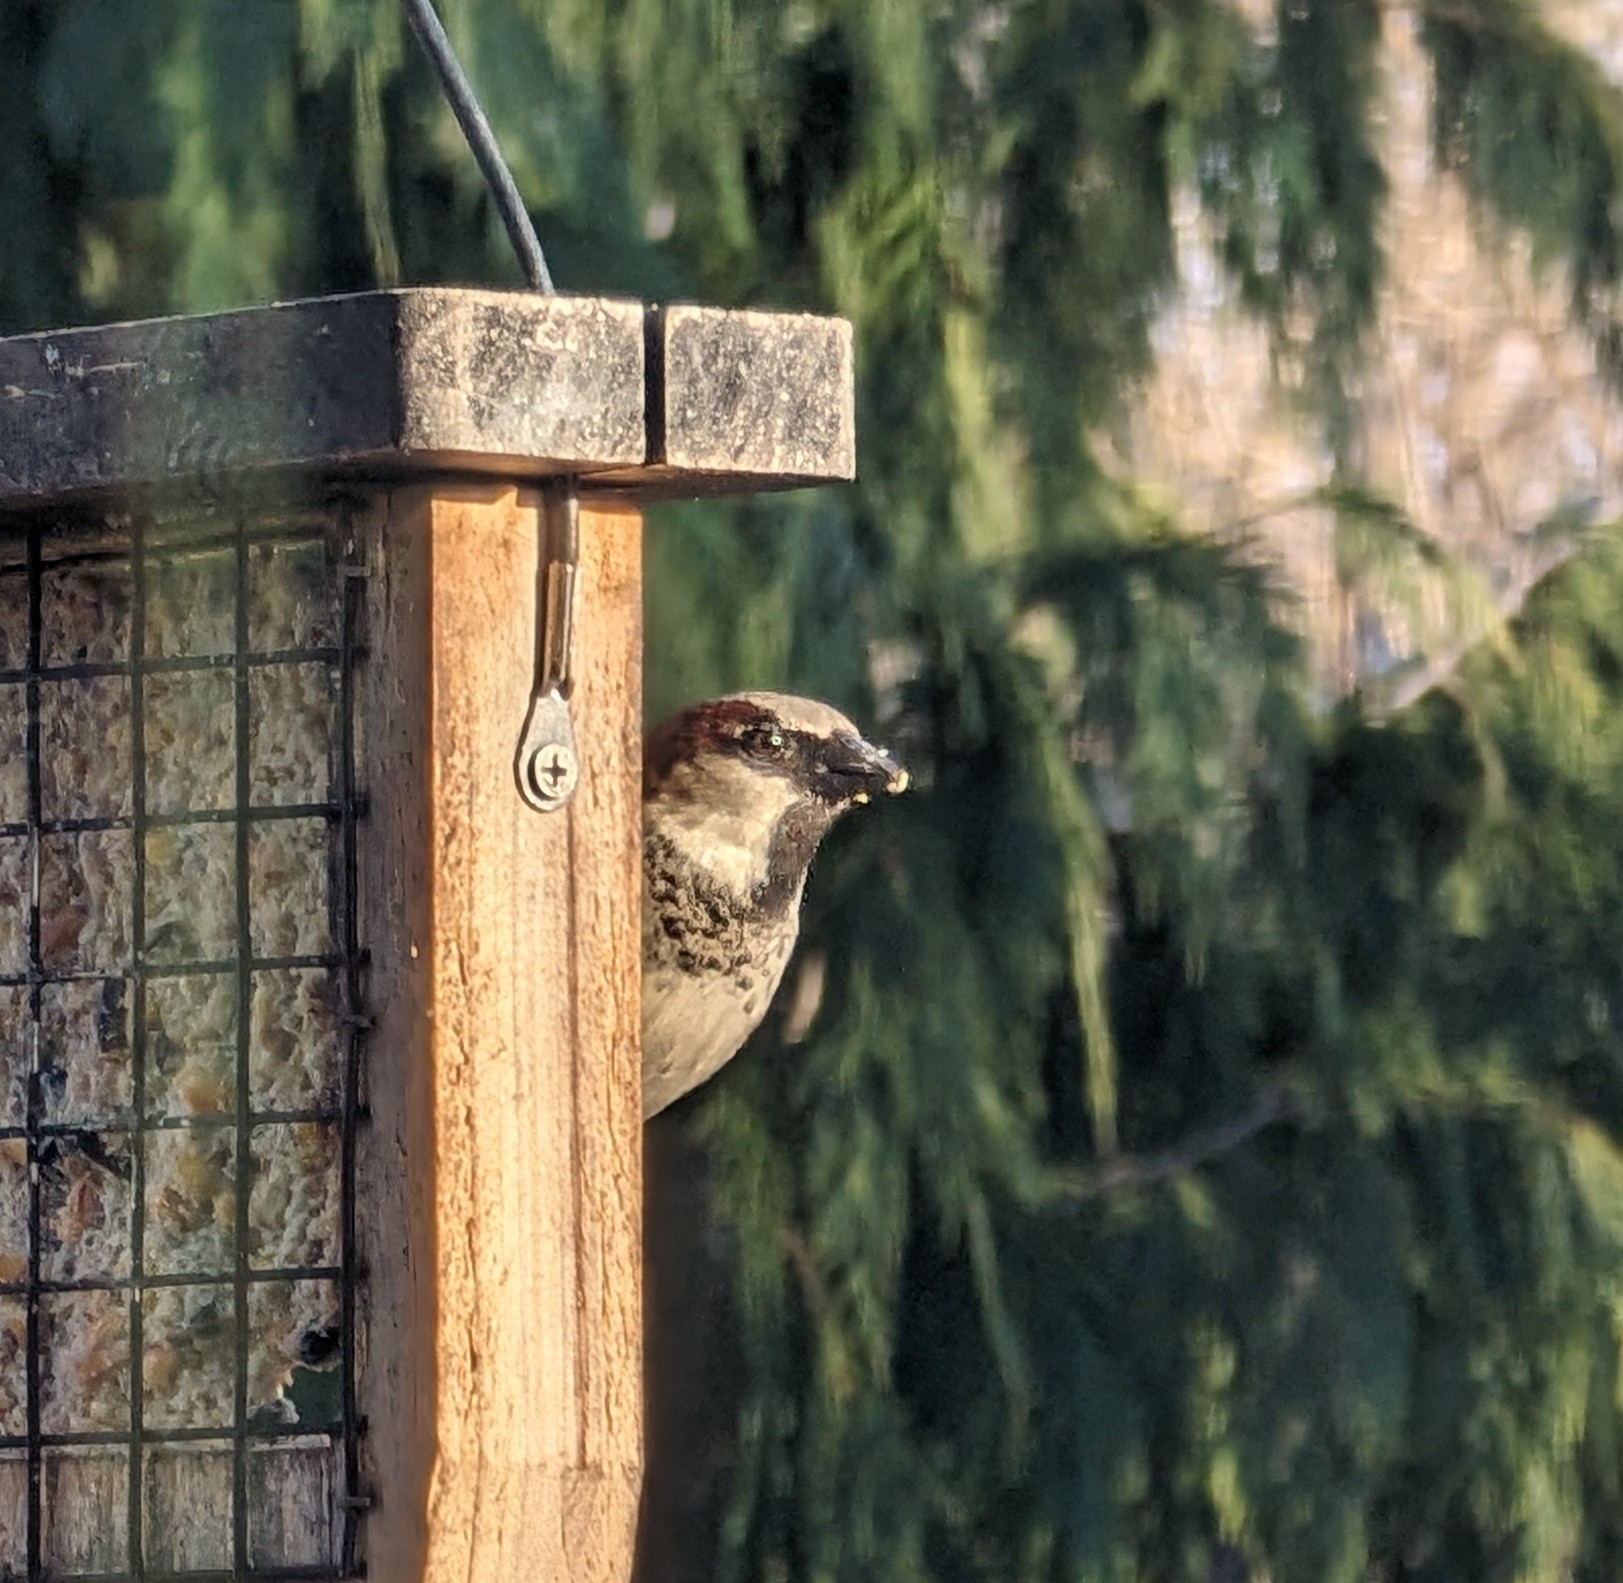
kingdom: Animalia
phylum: Chordata
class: Aves
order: Passeriformes
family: Passeridae
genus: Passer
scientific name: Passer domesticus
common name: House sparrow
